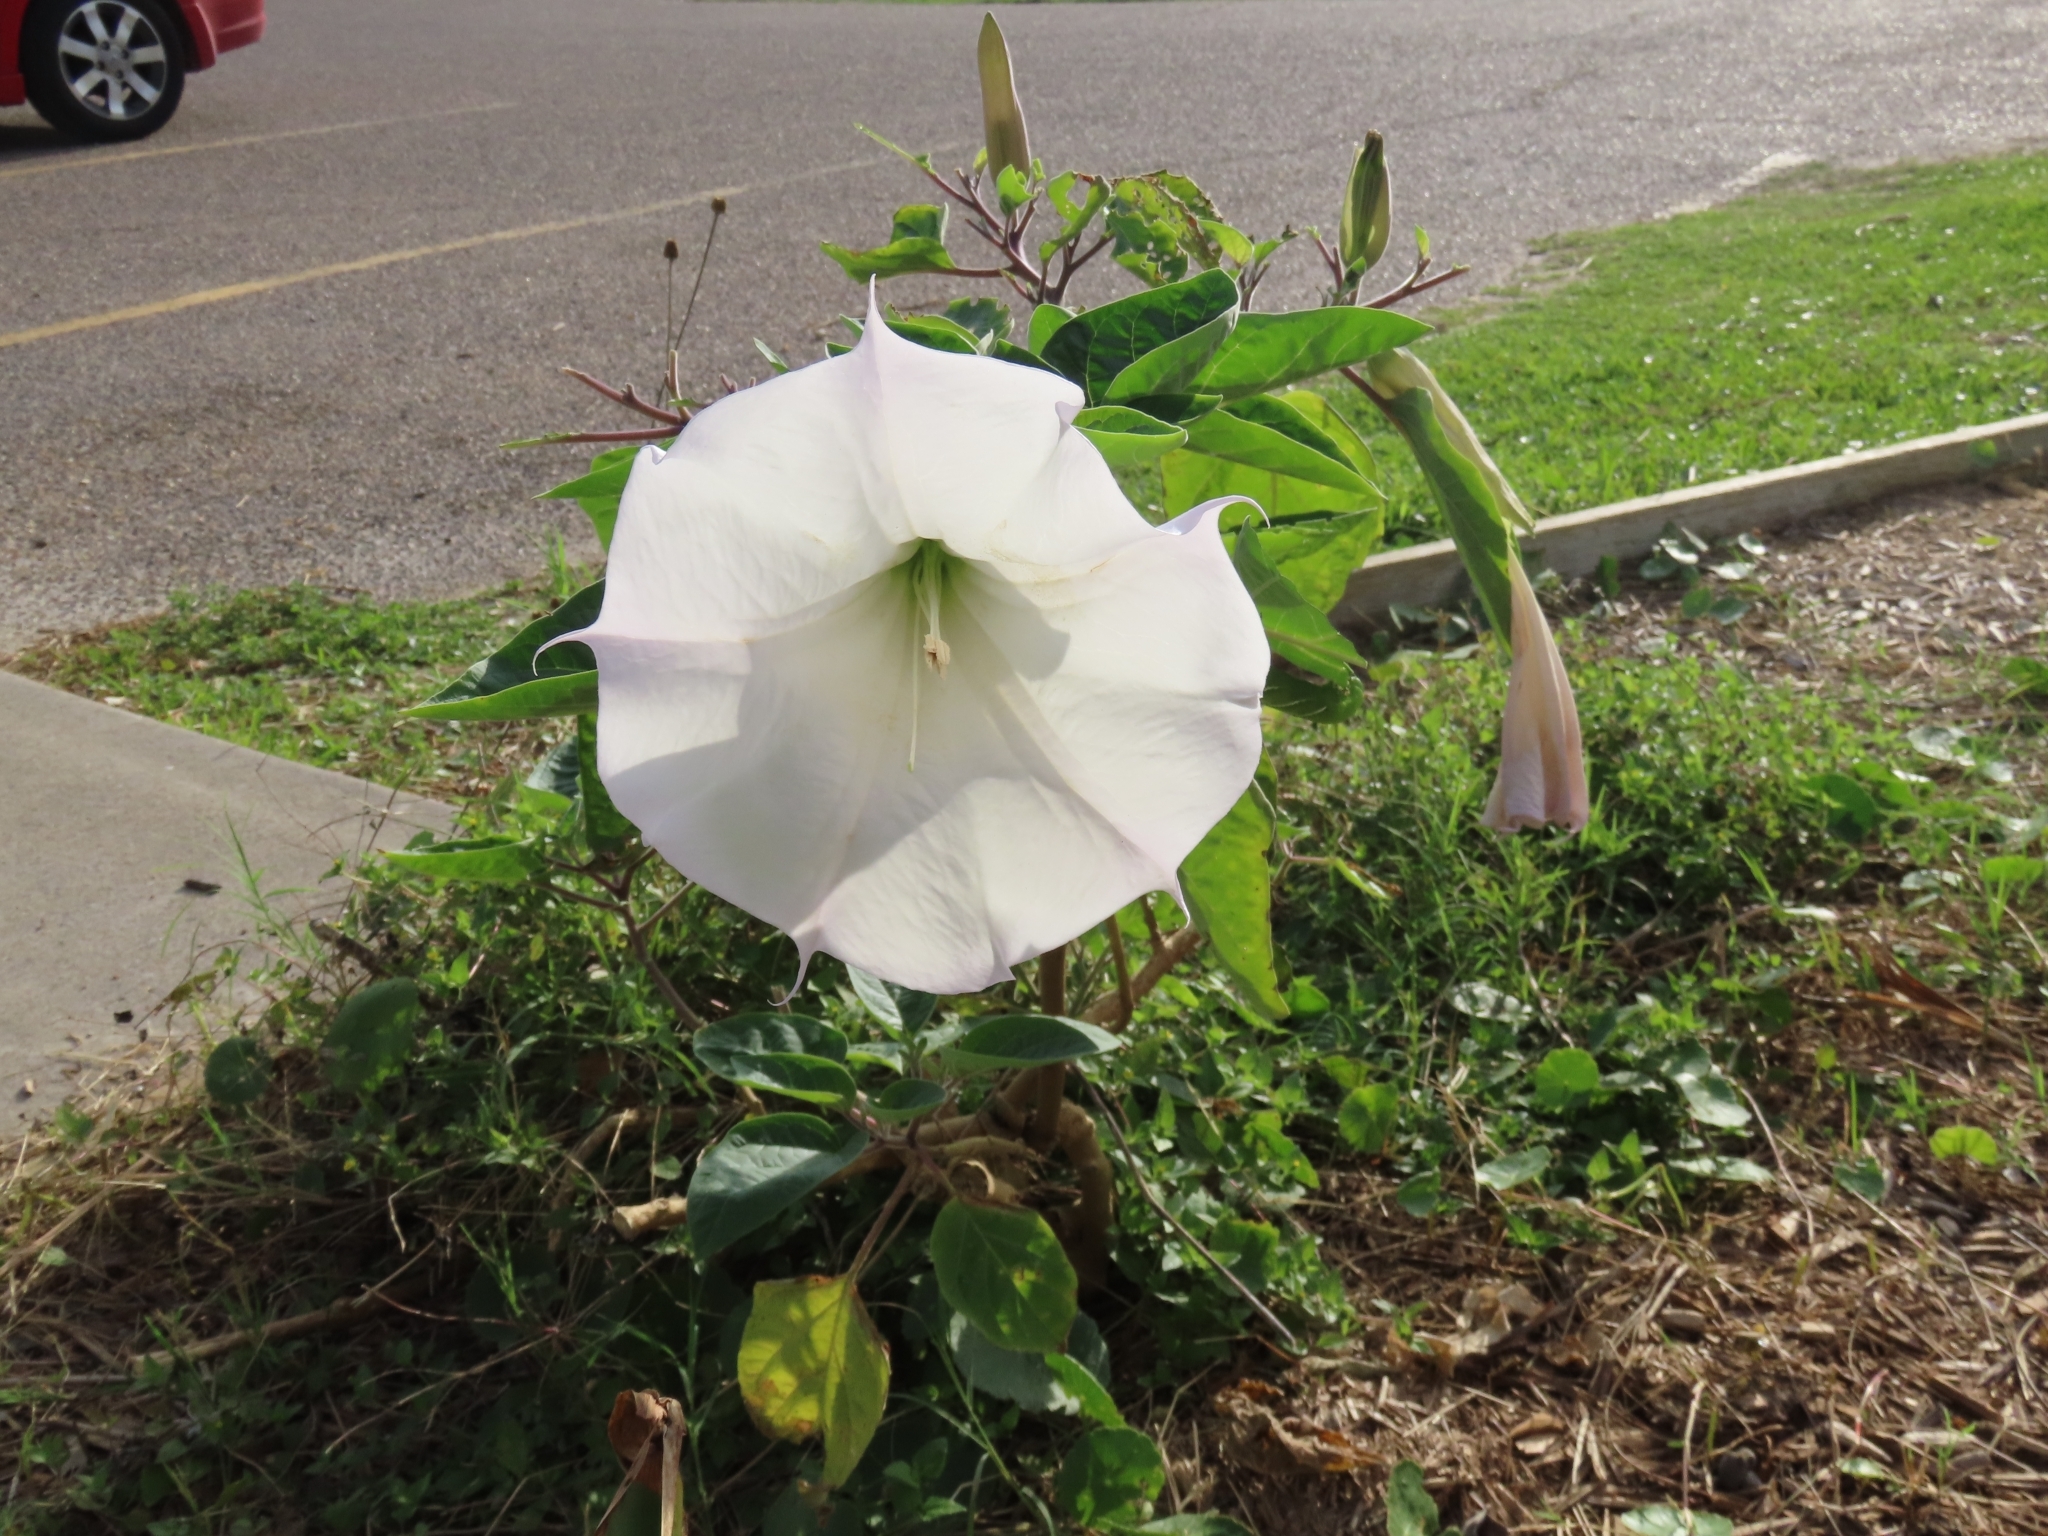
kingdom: Plantae
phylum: Tracheophyta
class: Magnoliopsida
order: Solanales
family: Solanaceae
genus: Datura
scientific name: Datura wrightii
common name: Sacred thorn-apple
